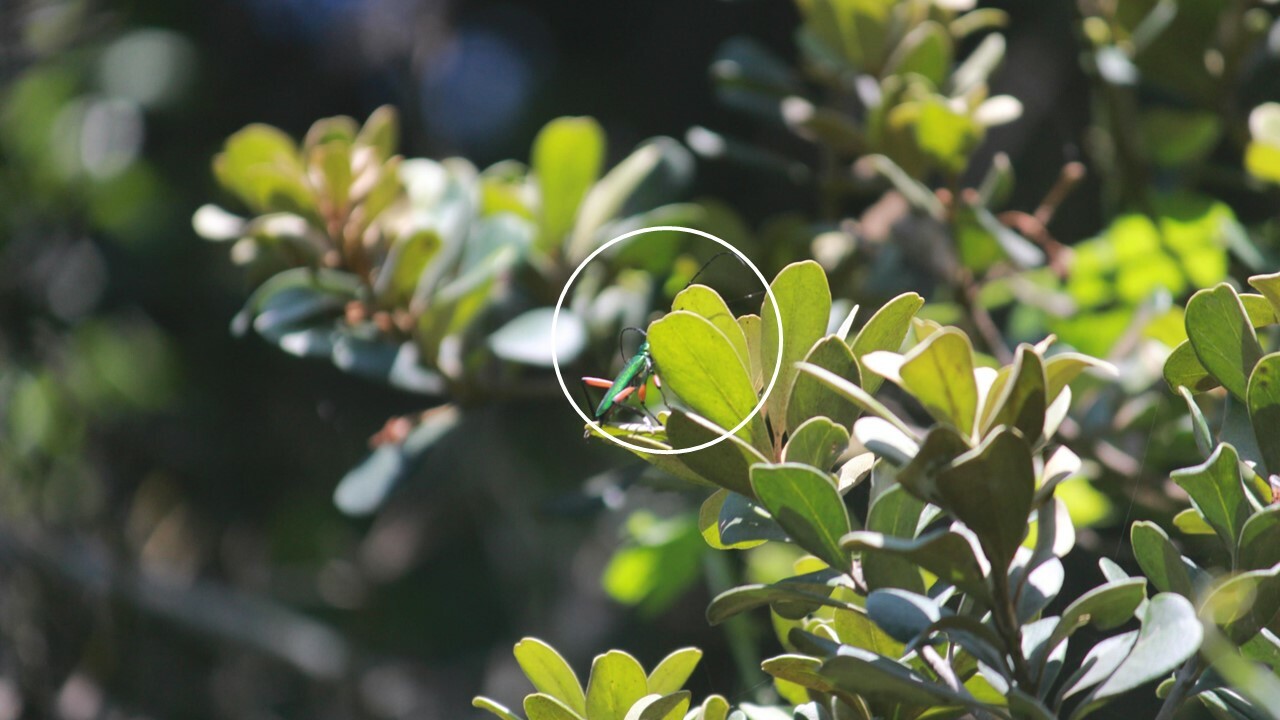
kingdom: Animalia
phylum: Arthropoda
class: Insecta
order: Coleoptera
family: Cerambycidae
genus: Philematium
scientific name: Philematium virens
